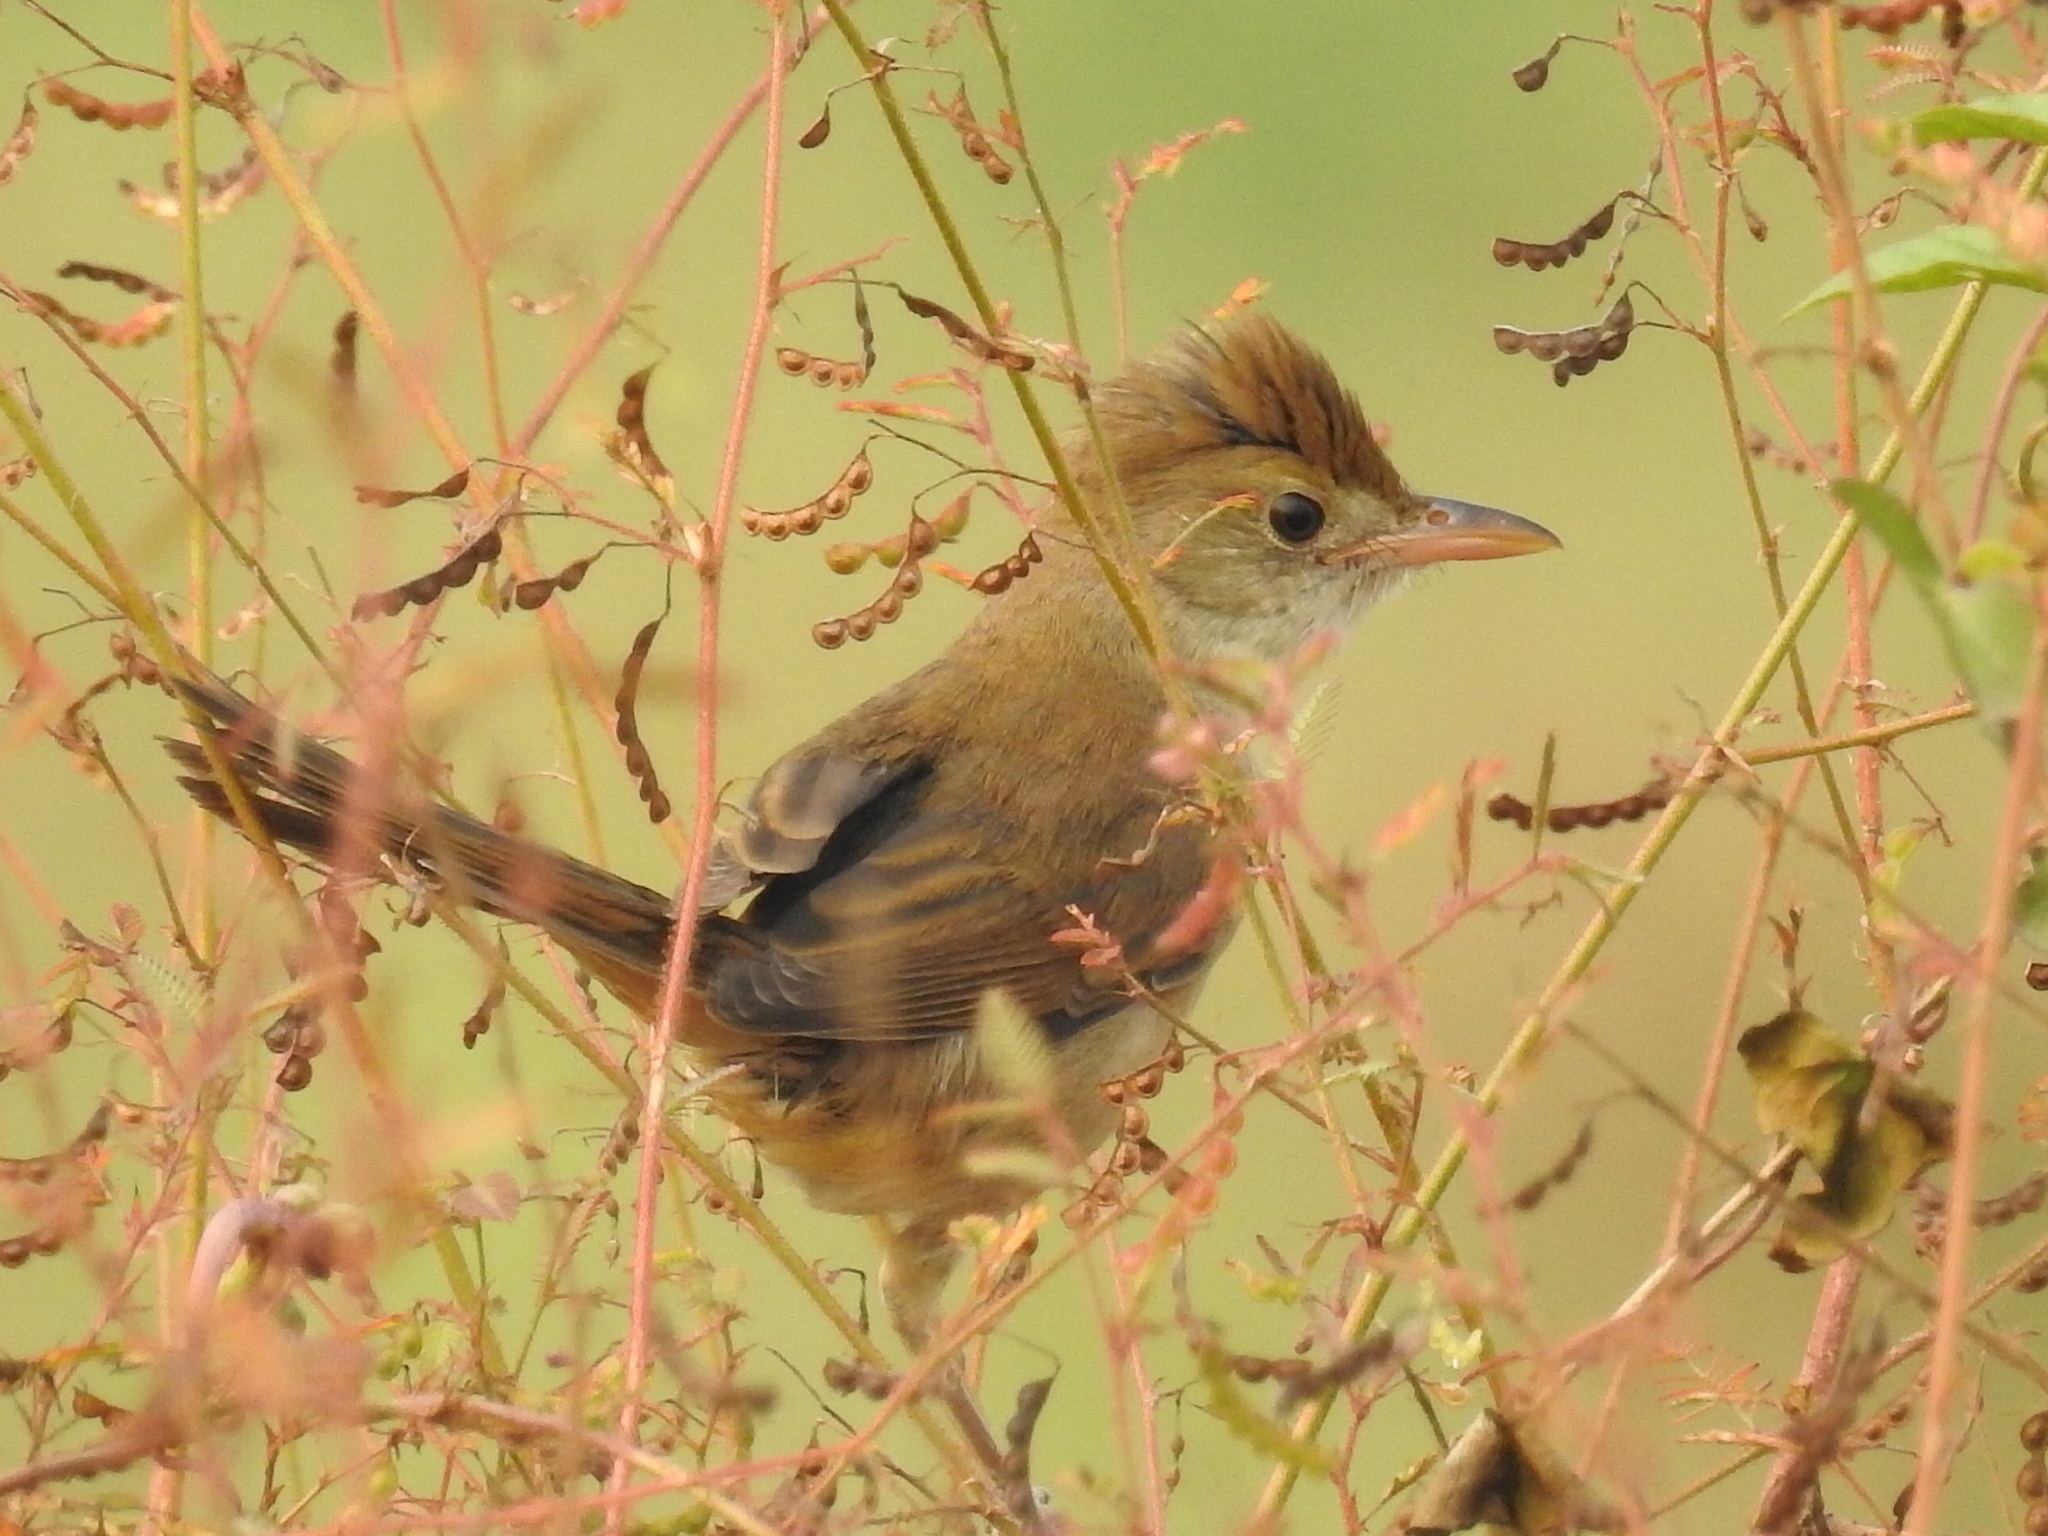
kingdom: Animalia
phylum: Chordata
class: Aves
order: Passeriformes
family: Acrocephalidae
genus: Iduna
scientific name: Iduna aedon
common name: Thick-billed warbler
